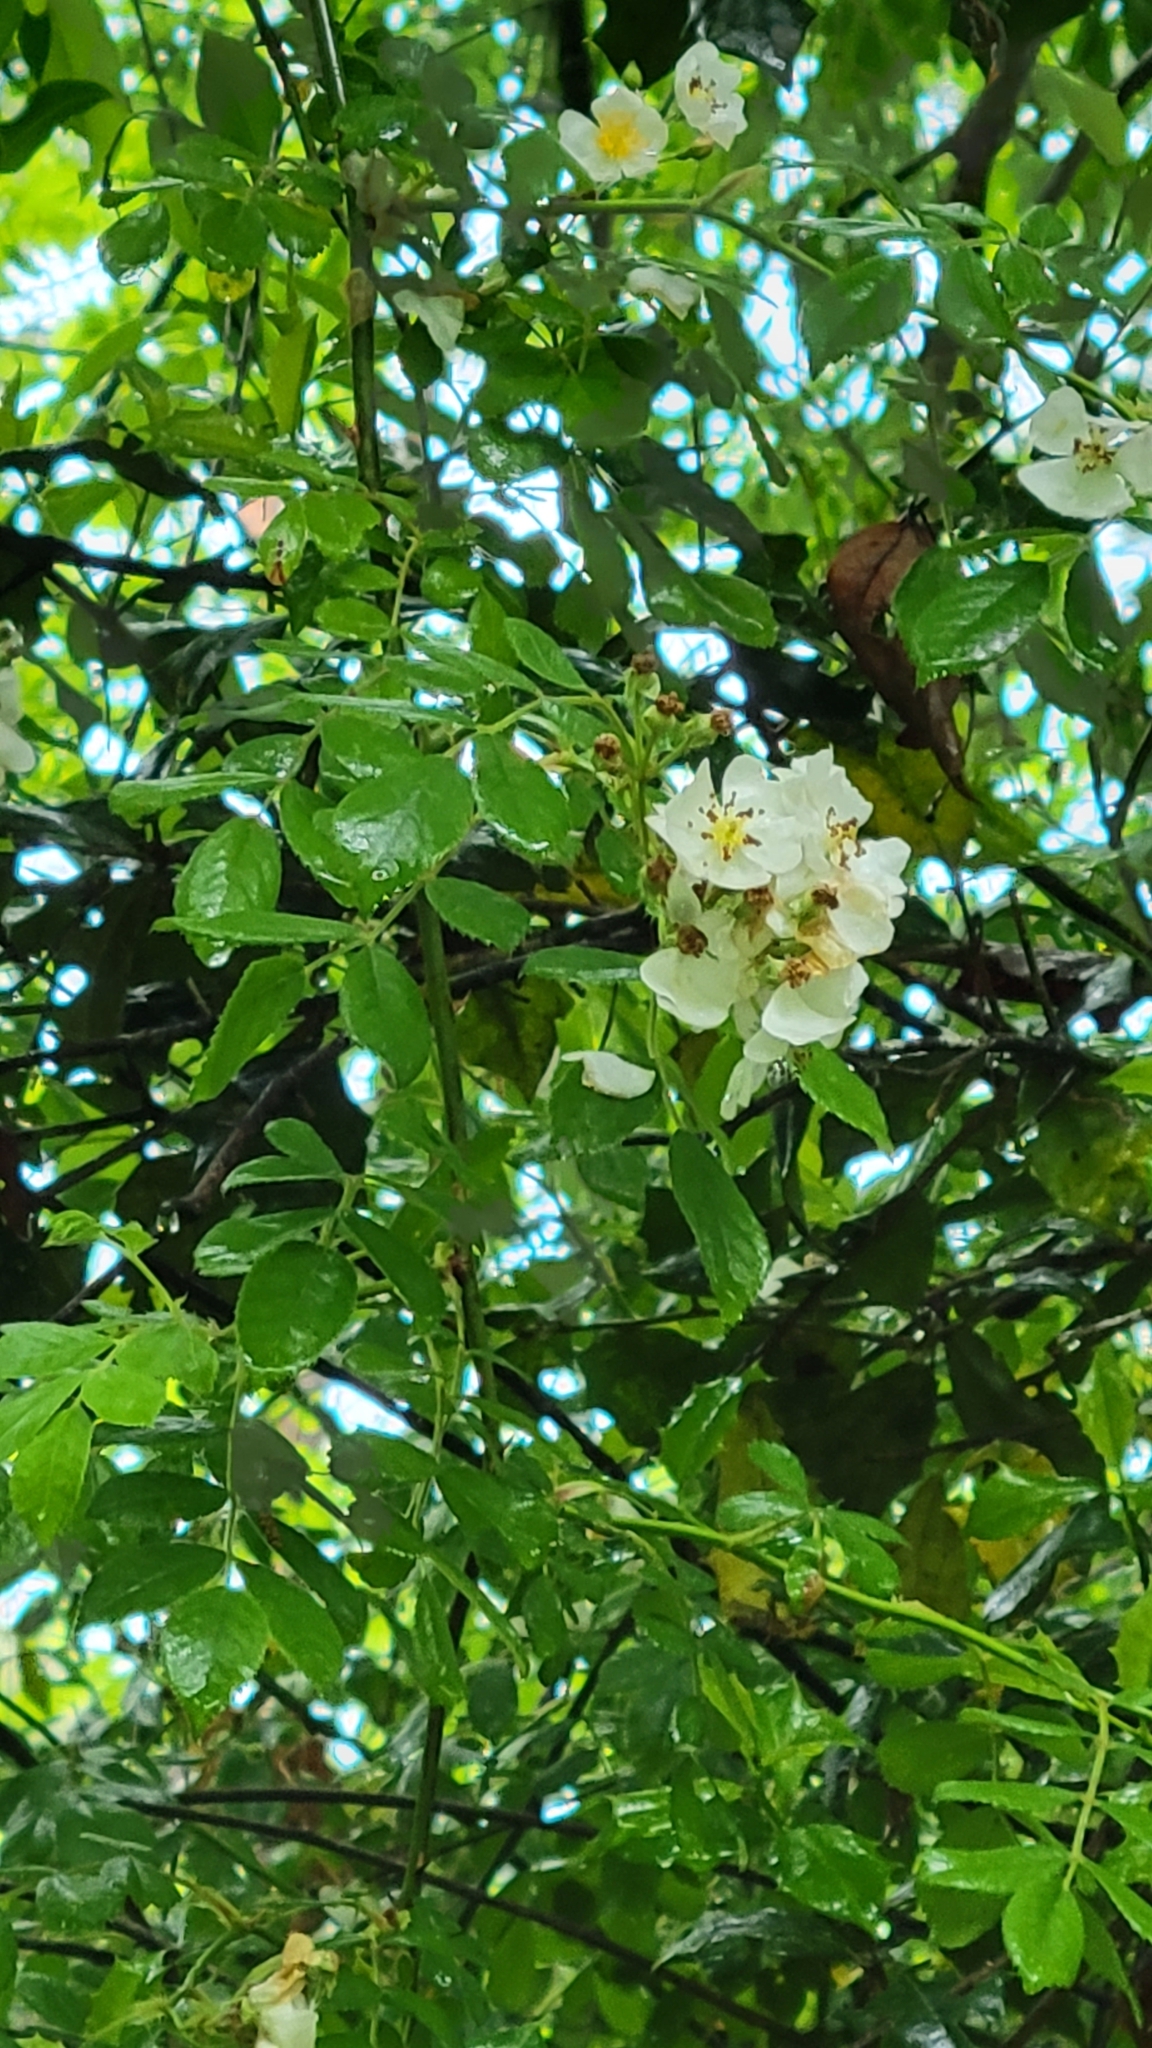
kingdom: Plantae
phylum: Tracheophyta
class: Magnoliopsida
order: Rosales
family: Rosaceae
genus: Rosa
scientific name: Rosa multiflora
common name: Multiflora rose
